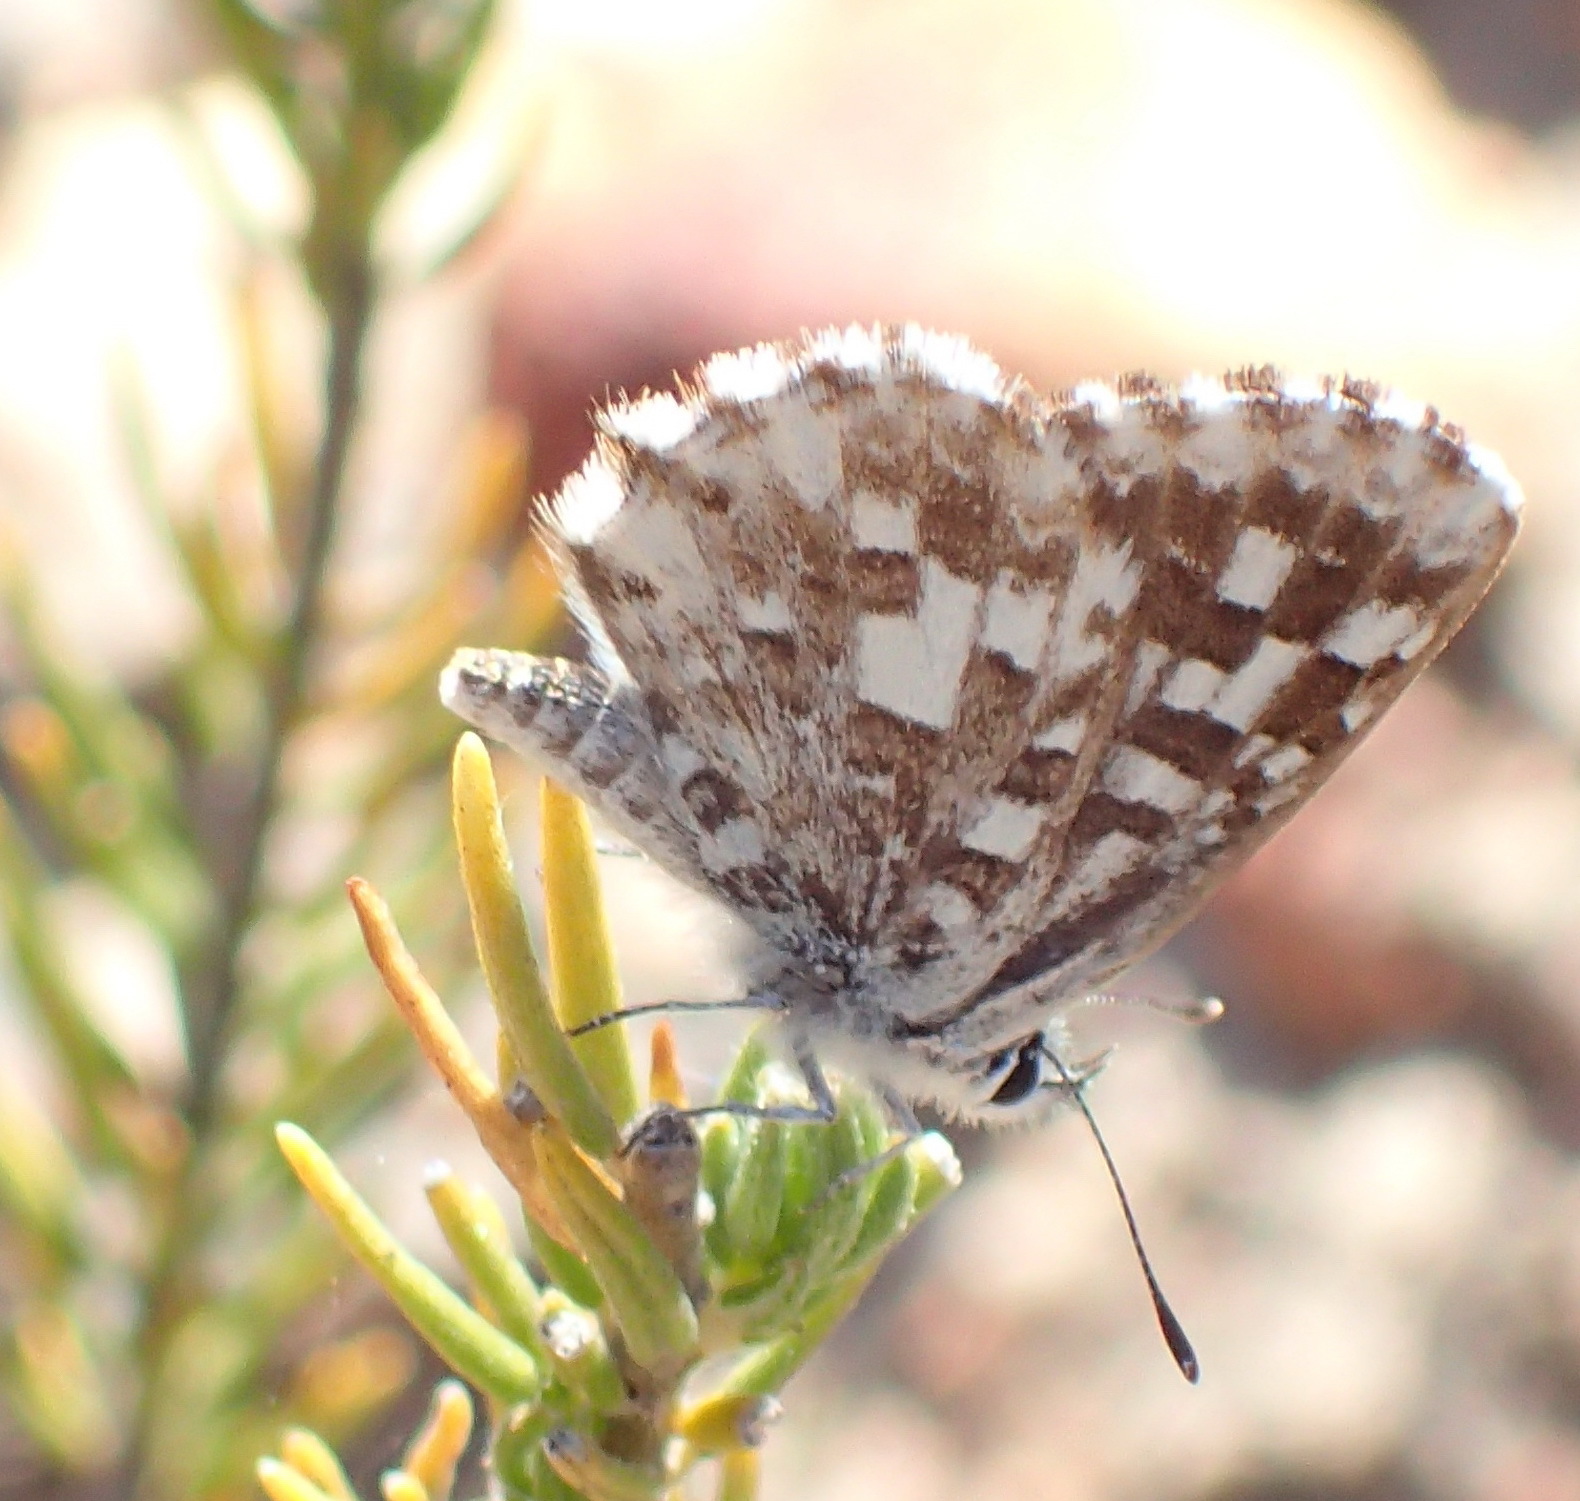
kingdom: Animalia
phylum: Arthropoda
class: Insecta
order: Lepidoptera
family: Lycaenidae
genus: Tarucus
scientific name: Tarucus thespis
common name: Vivid dotted blue
